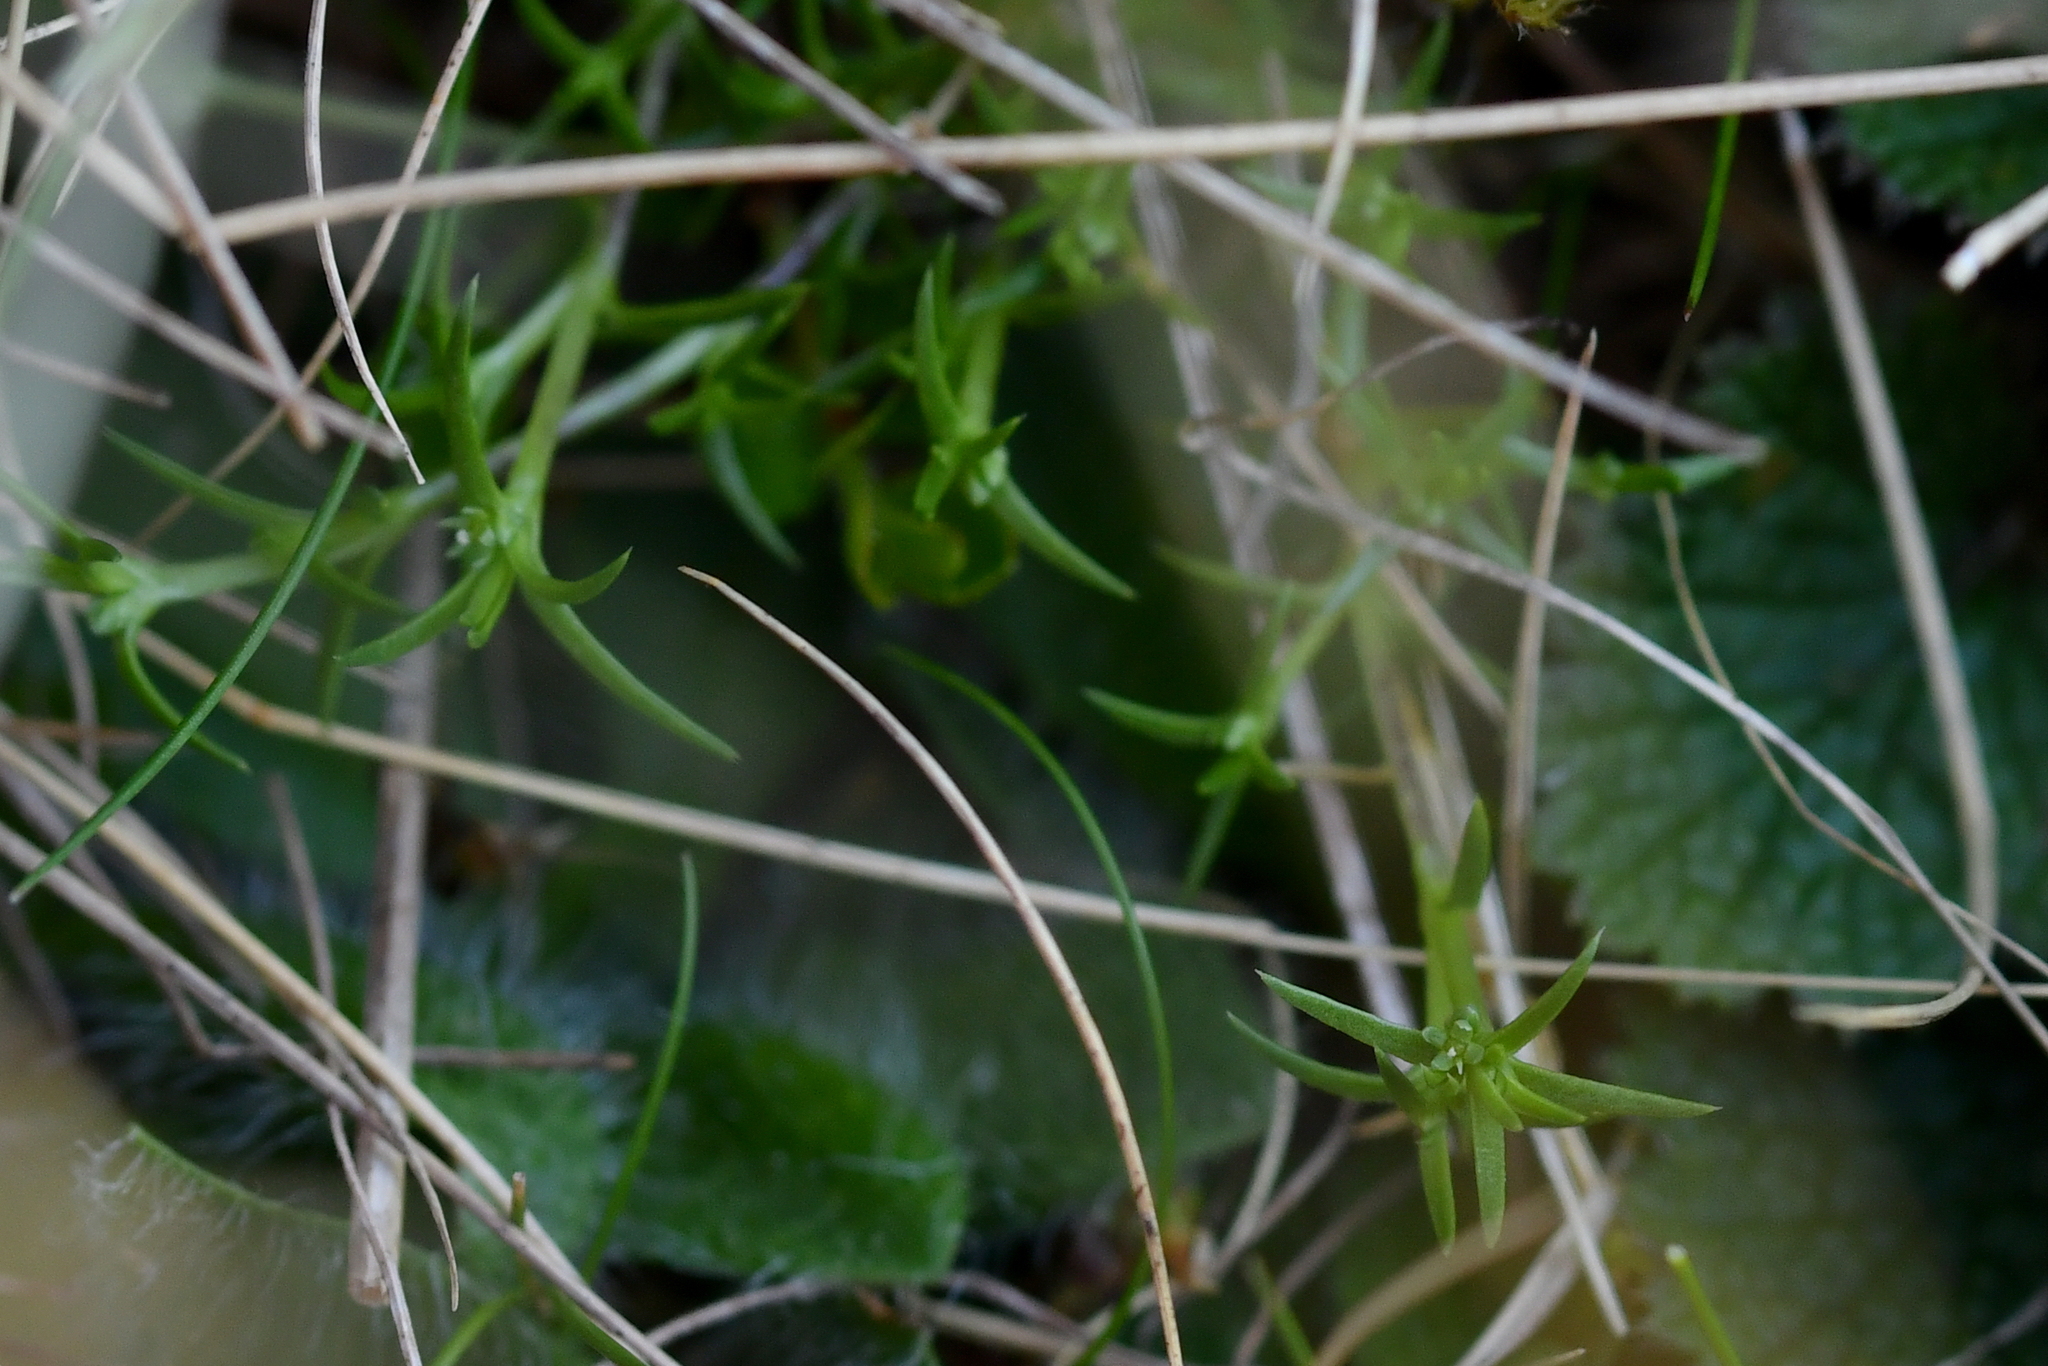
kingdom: Plantae
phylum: Tracheophyta
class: Magnoliopsida
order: Caryophyllales
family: Caryophyllaceae
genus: Sagina
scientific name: Sagina procumbens
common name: Procumbent pearlwort
